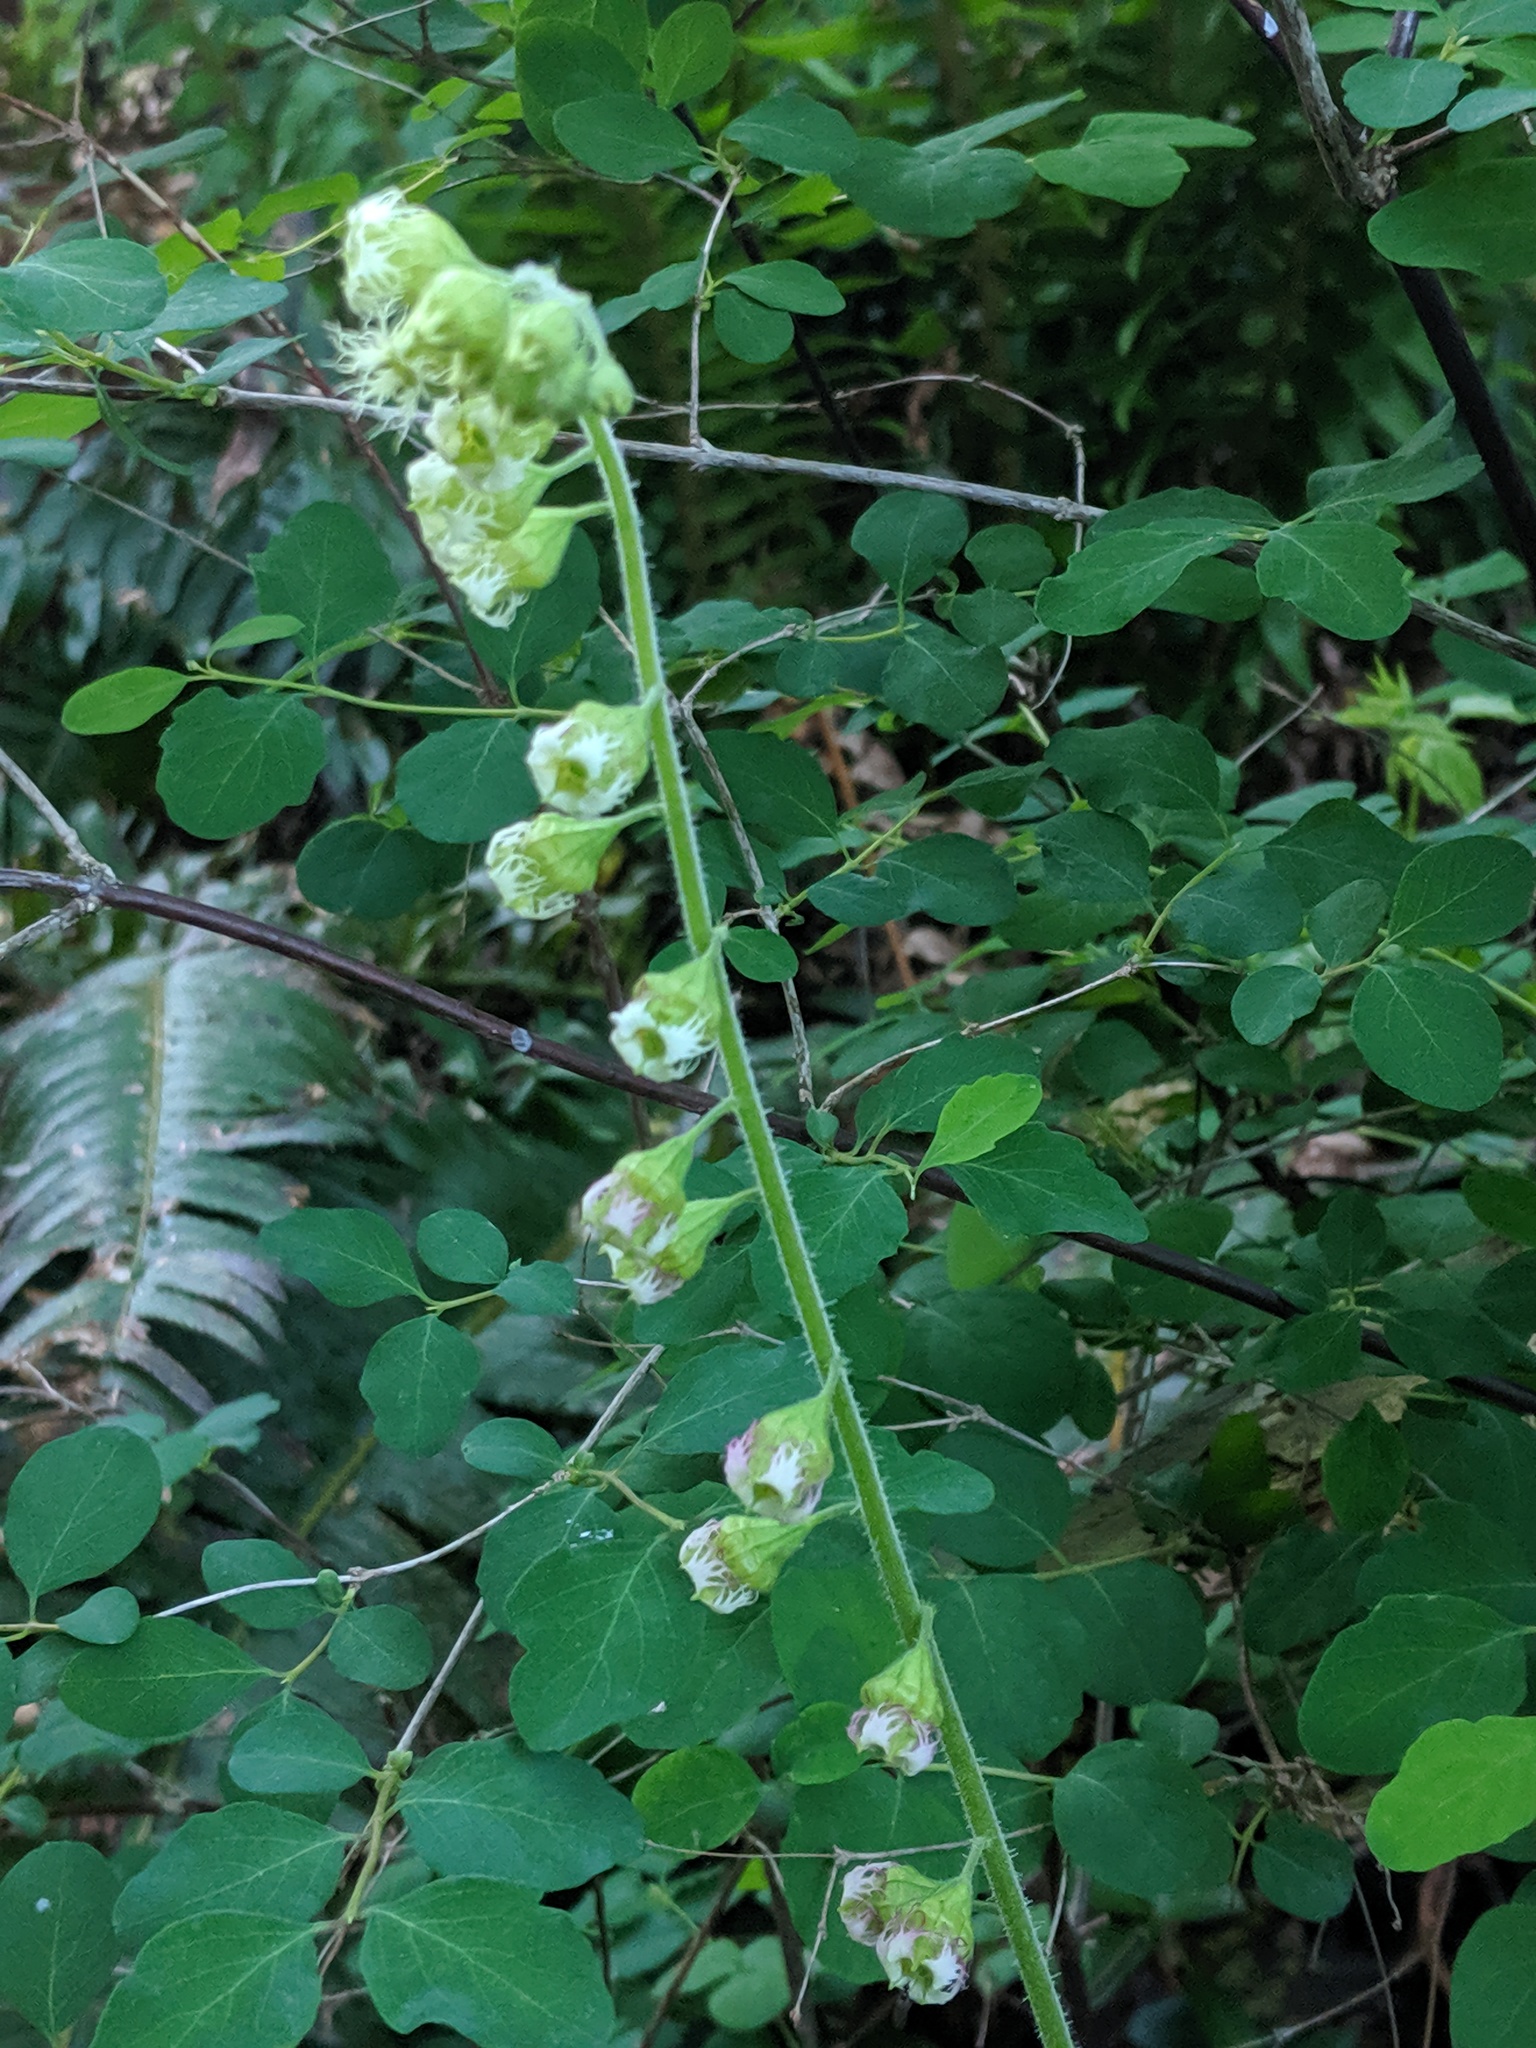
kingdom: Plantae
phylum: Tracheophyta
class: Magnoliopsida
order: Saxifragales
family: Saxifragaceae
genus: Tellima
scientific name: Tellima grandiflora
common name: Fringecups
